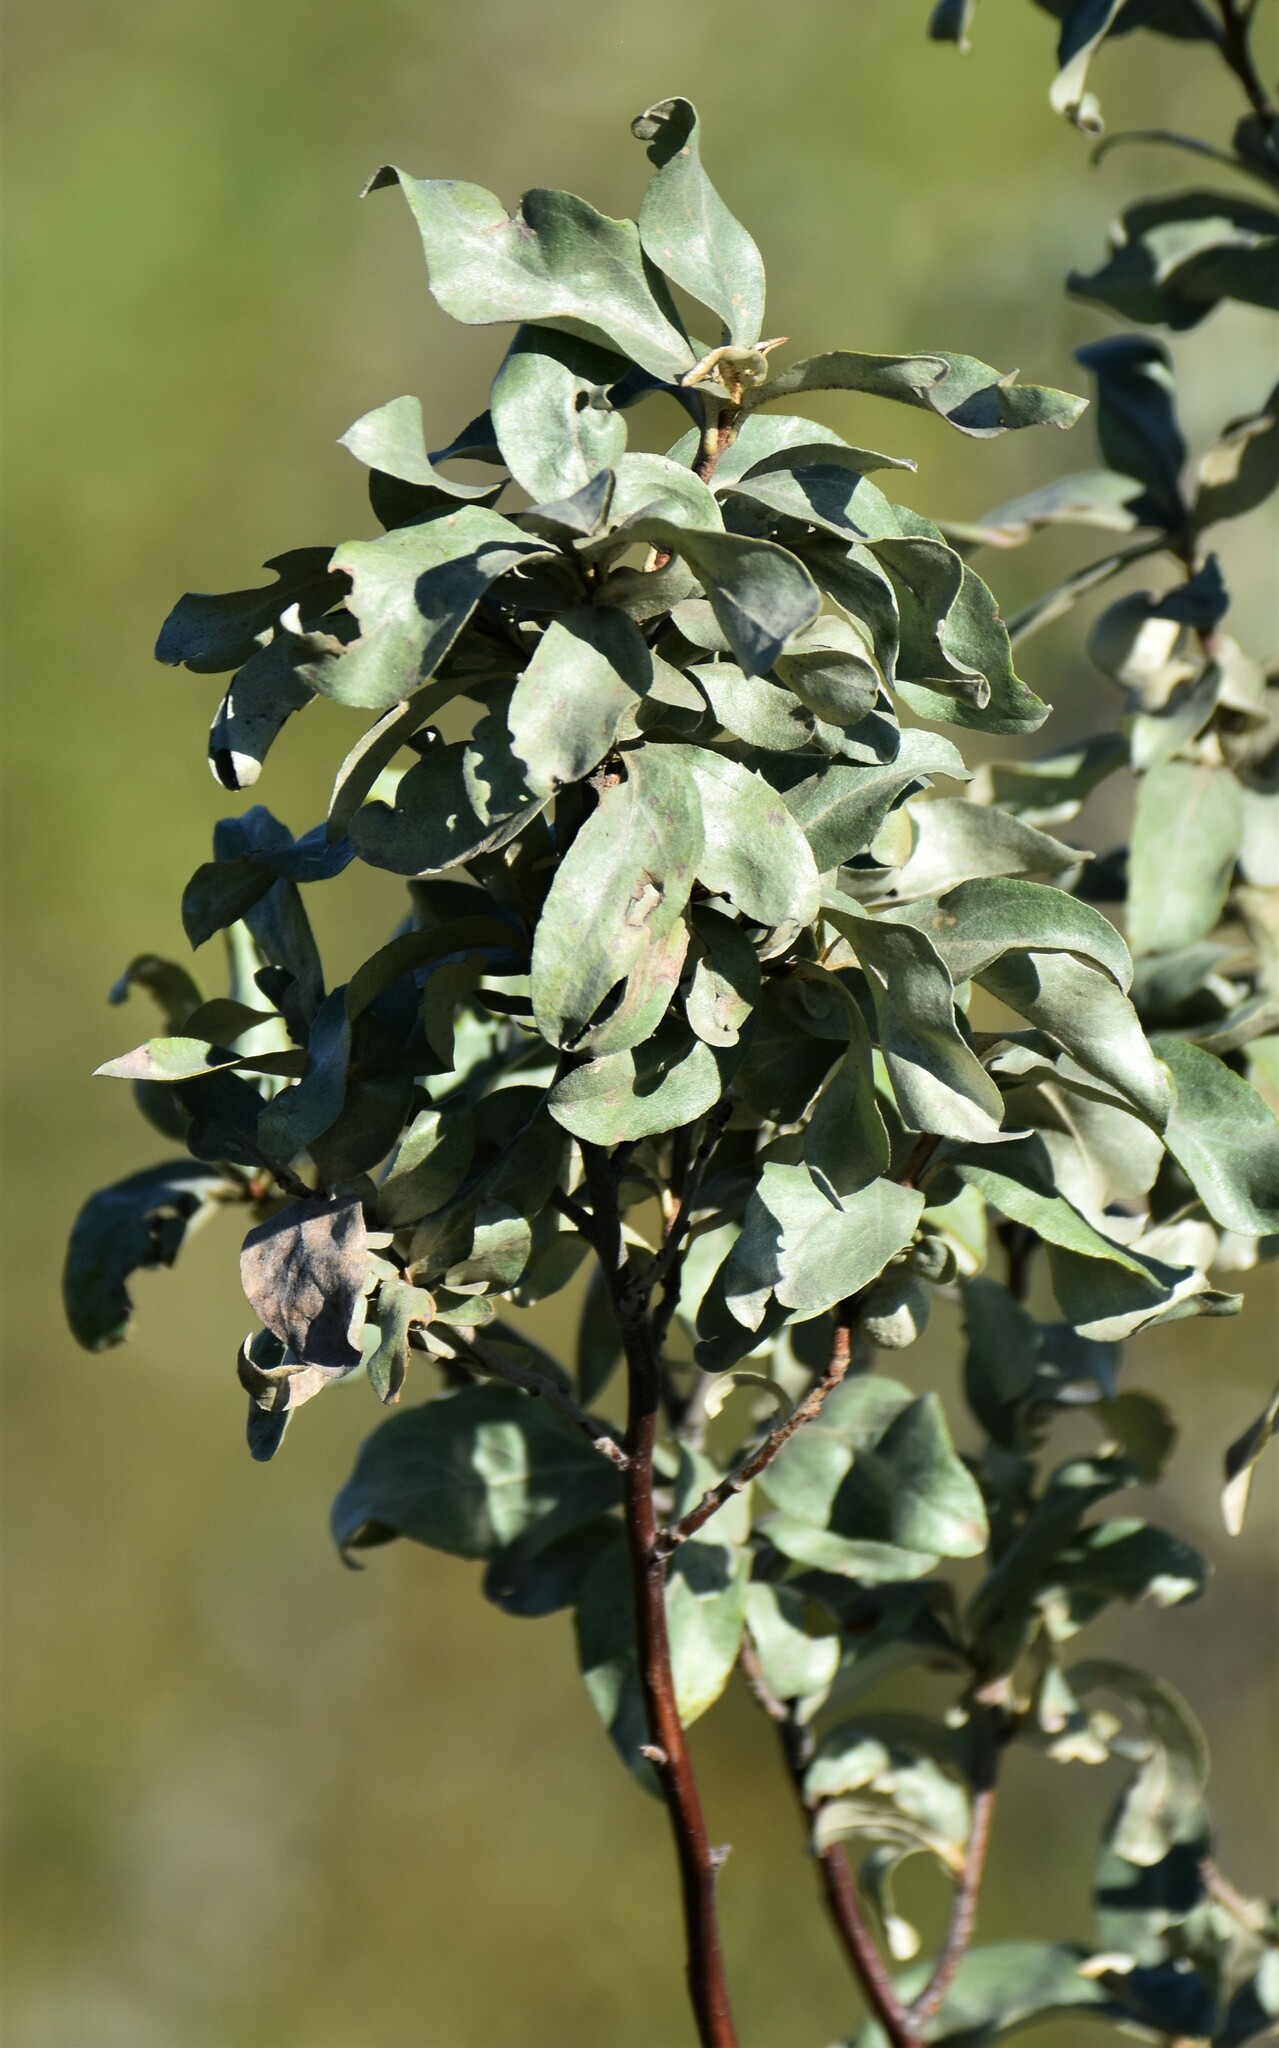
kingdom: Plantae
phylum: Tracheophyta
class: Magnoliopsida
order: Rosales
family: Elaeagnaceae
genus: Elaeagnus
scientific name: Elaeagnus commutata
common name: Silverberry
